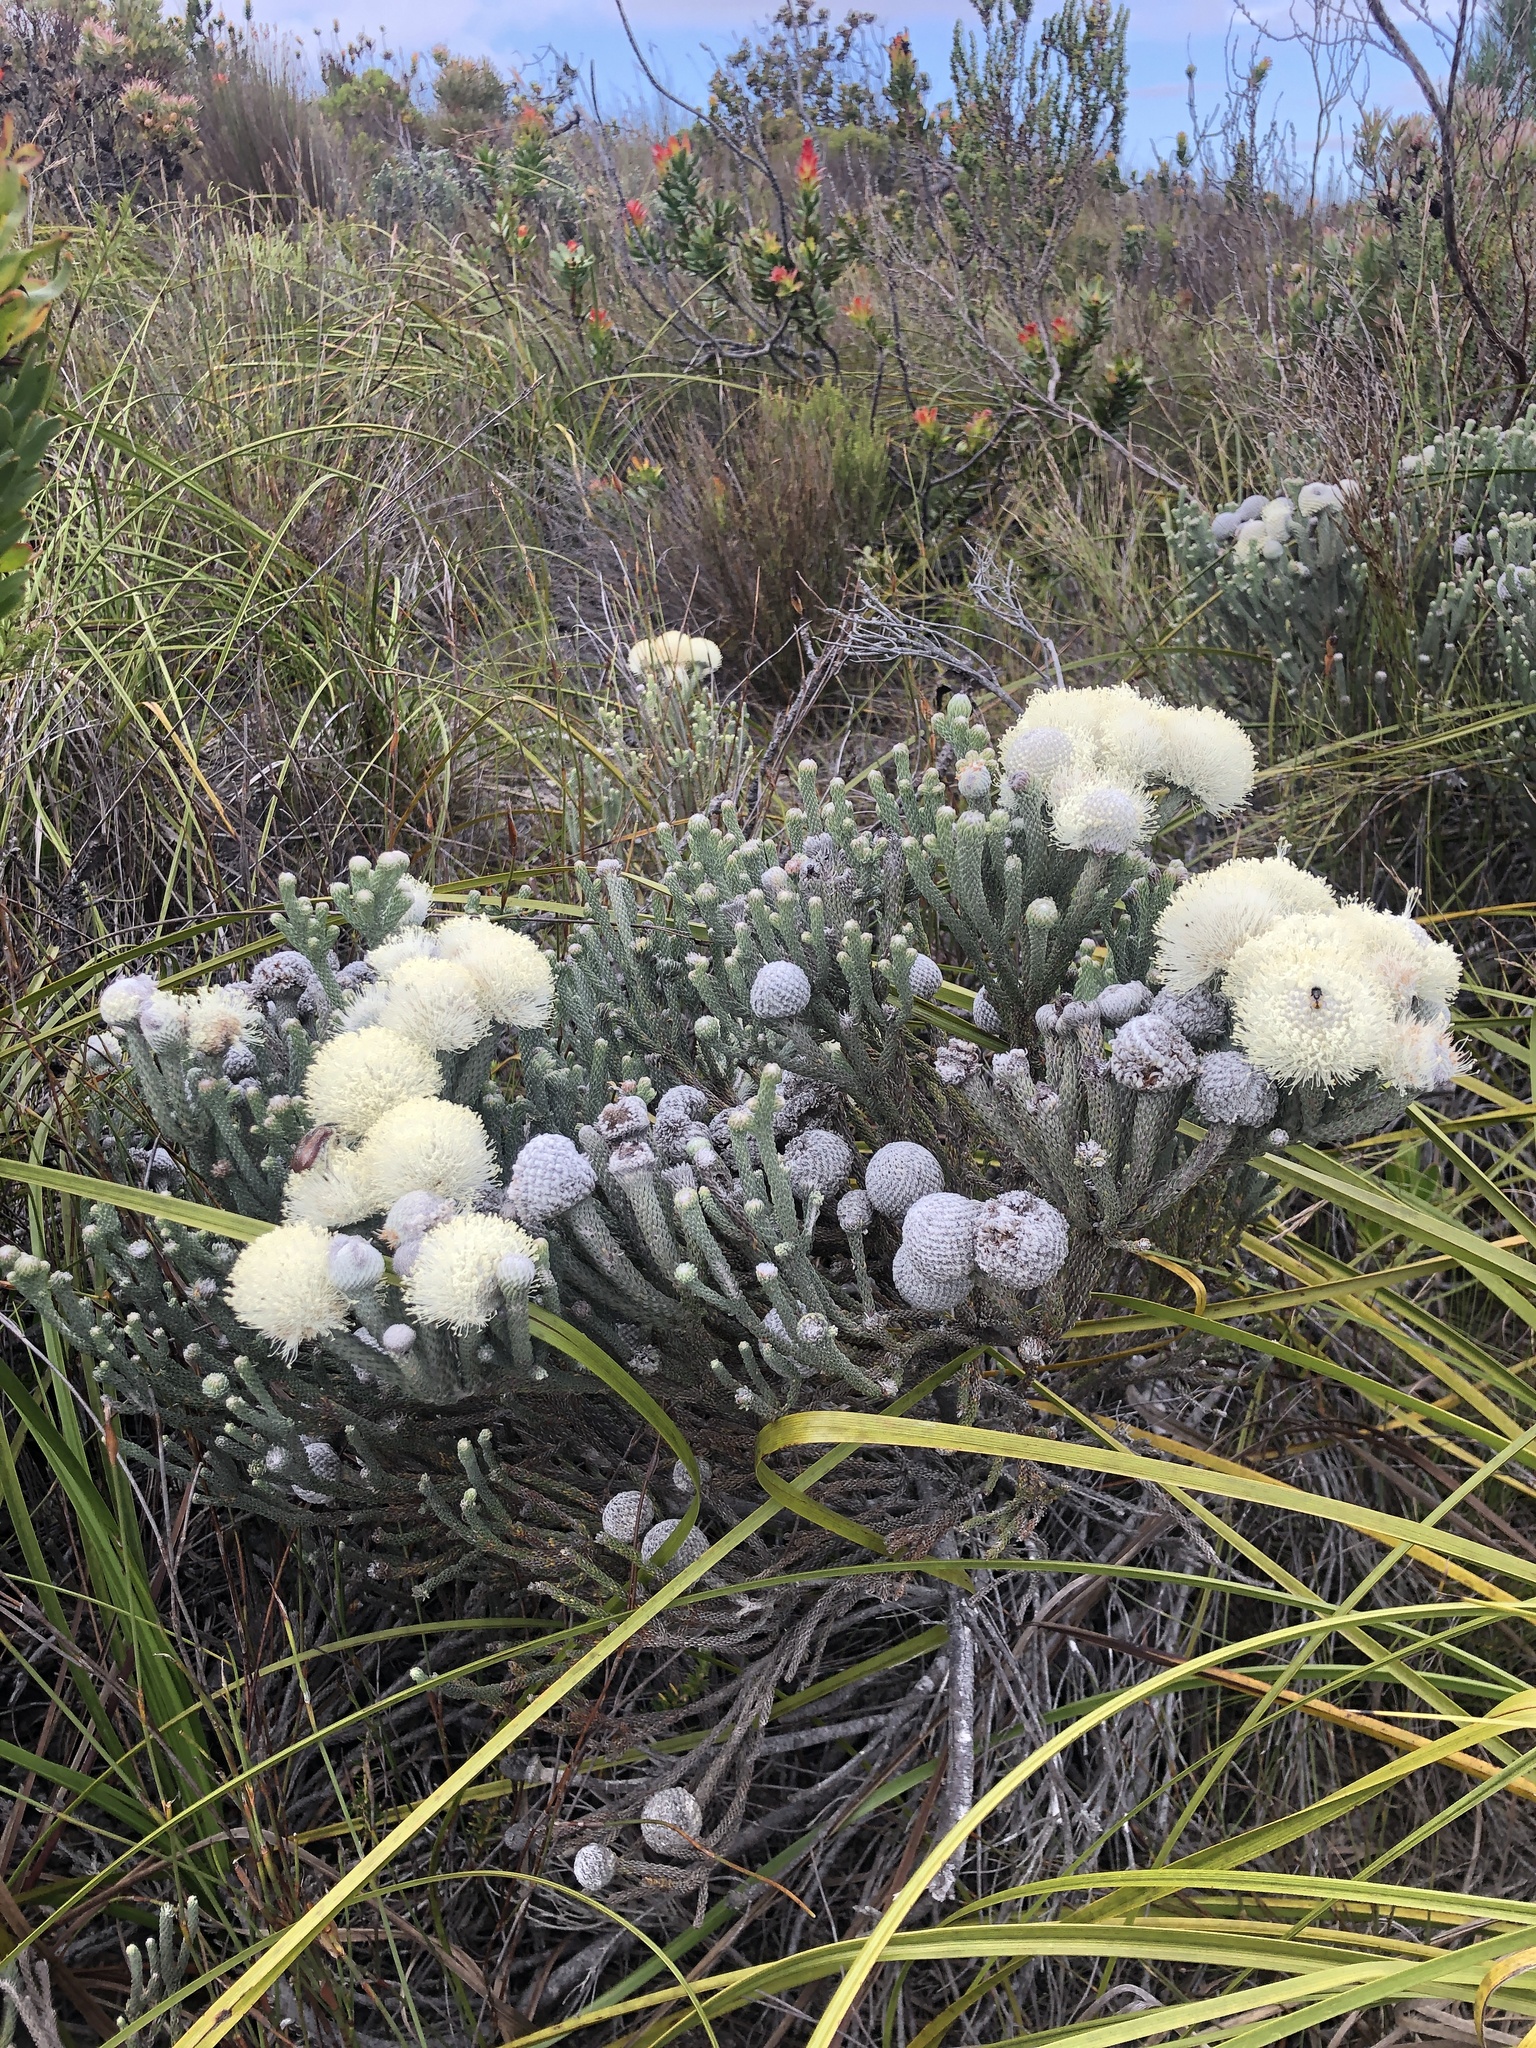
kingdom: Plantae
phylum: Tracheophyta
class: Magnoliopsida
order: Bruniales
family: Bruniaceae
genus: Brunia
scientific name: Brunia laevis
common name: Silver brunia
